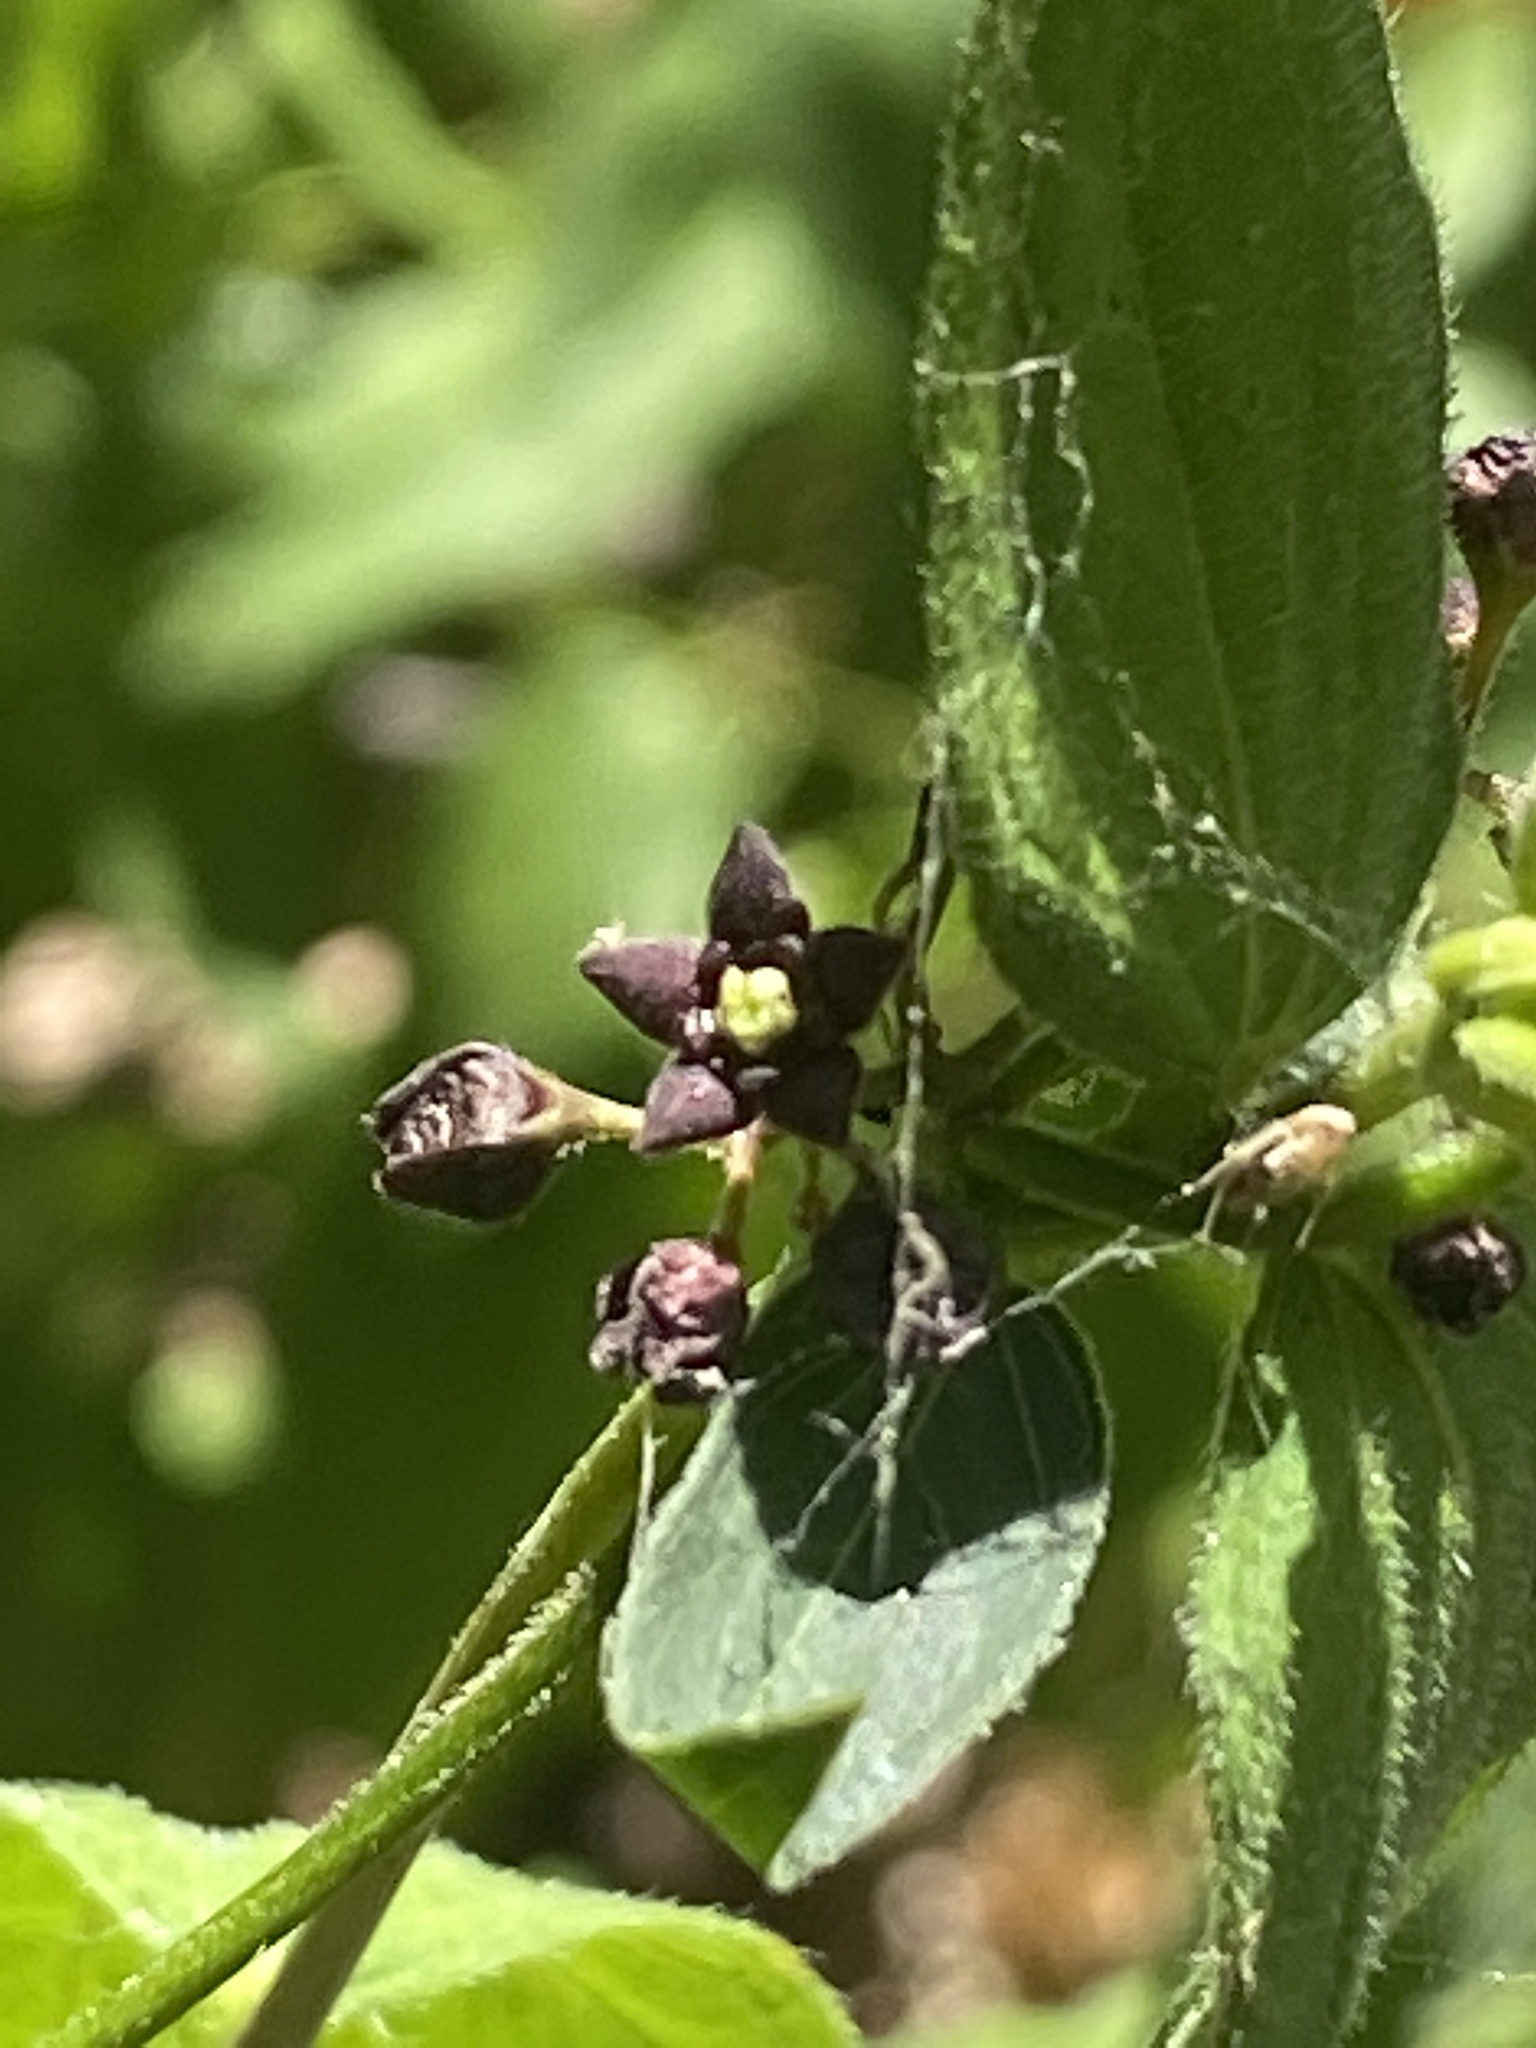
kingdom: Plantae
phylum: Tracheophyta
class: Magnoliopsida
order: Gentianales
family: Apocynaceae
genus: Vincetoxicum
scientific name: Vincetoxicum nigrum
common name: Black swallow-wort
